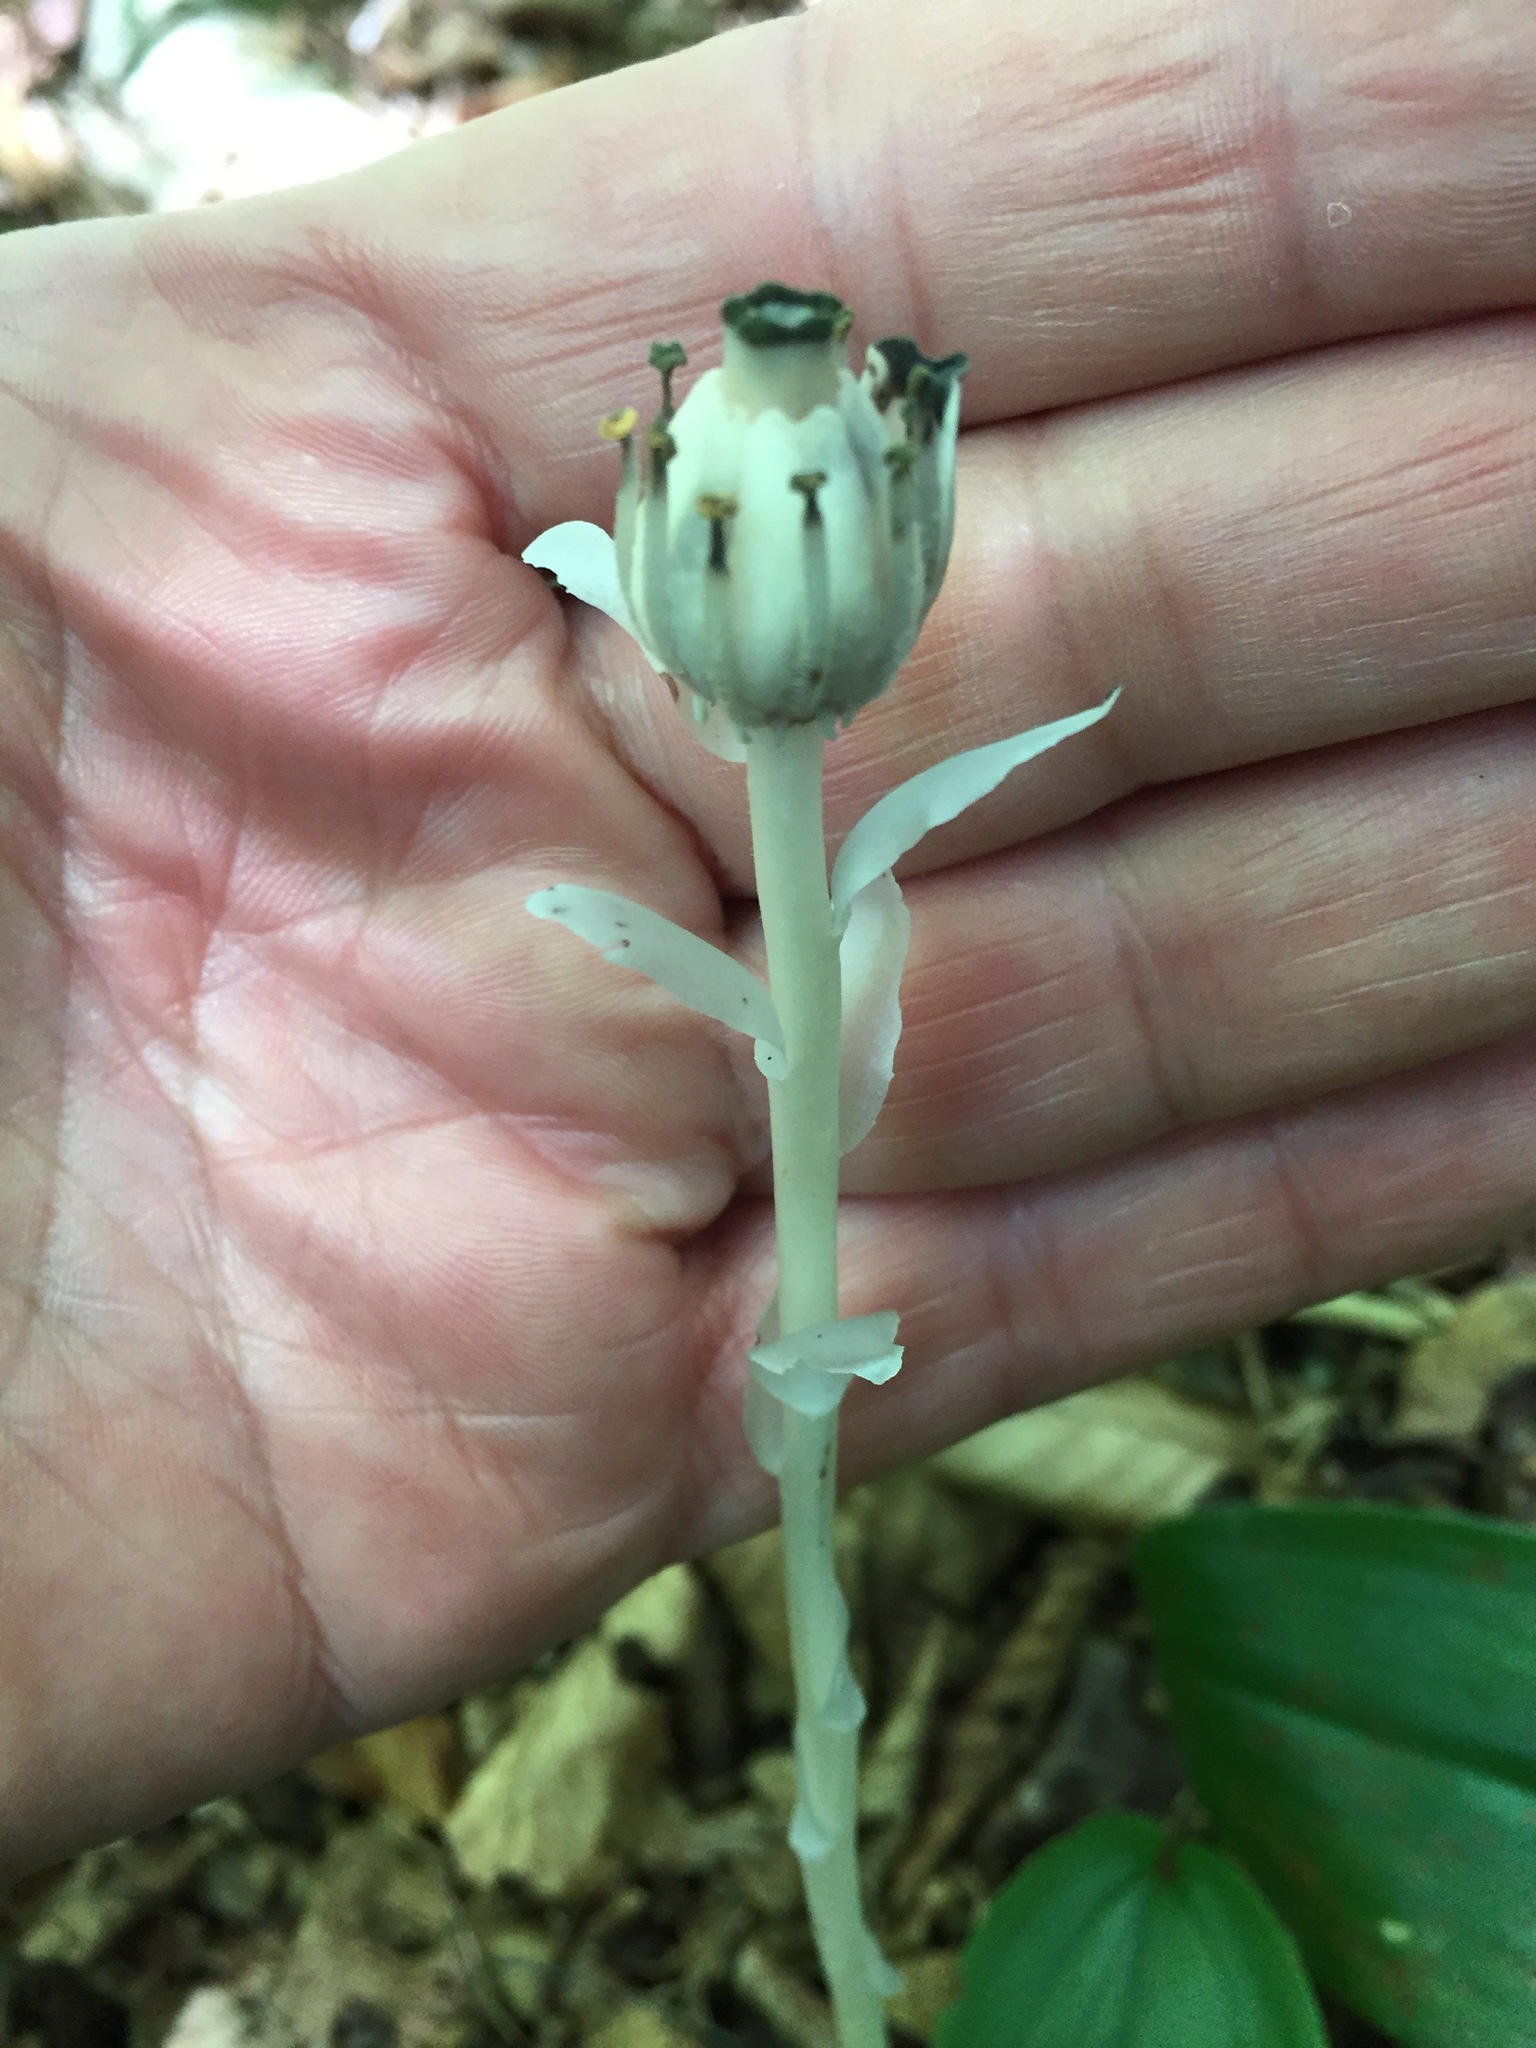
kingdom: Plantae
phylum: Tracheophyta
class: Magnoliopsida
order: Ericales
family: Ericaceae
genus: Monotropa
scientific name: Monotropa uniflora
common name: Convulsion root
